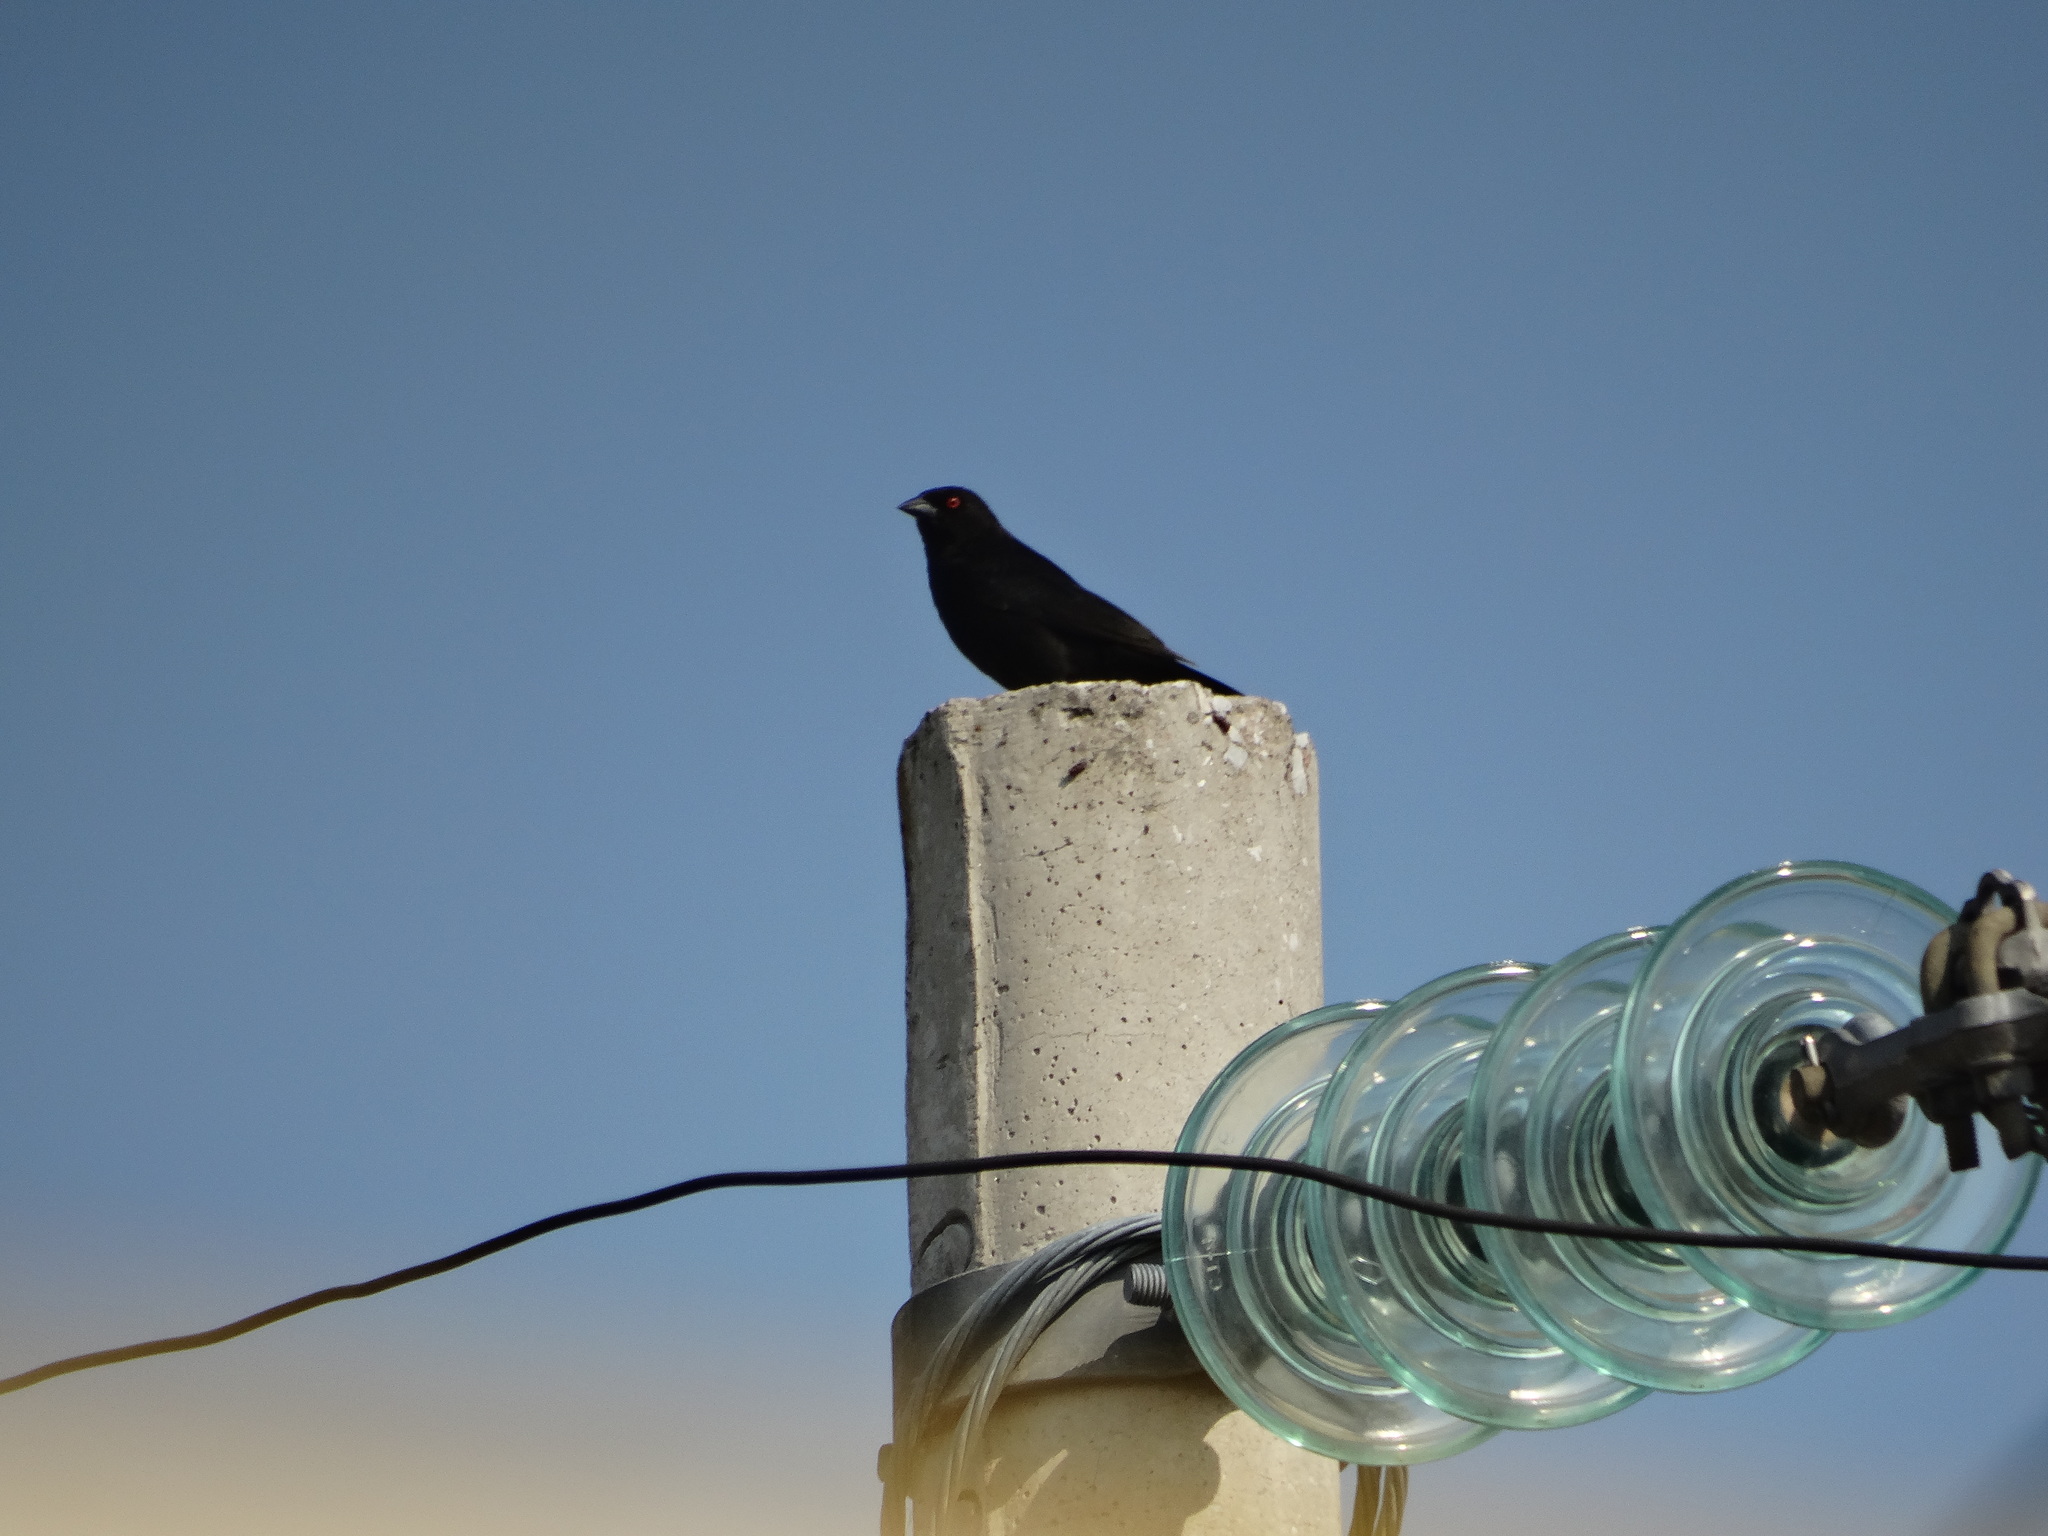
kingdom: Animalia
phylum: Chordata
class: Aves
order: Passeriformes
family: Icteridae
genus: Molothrus
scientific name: Molothrus aeneus
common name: Bronzed cowbird
